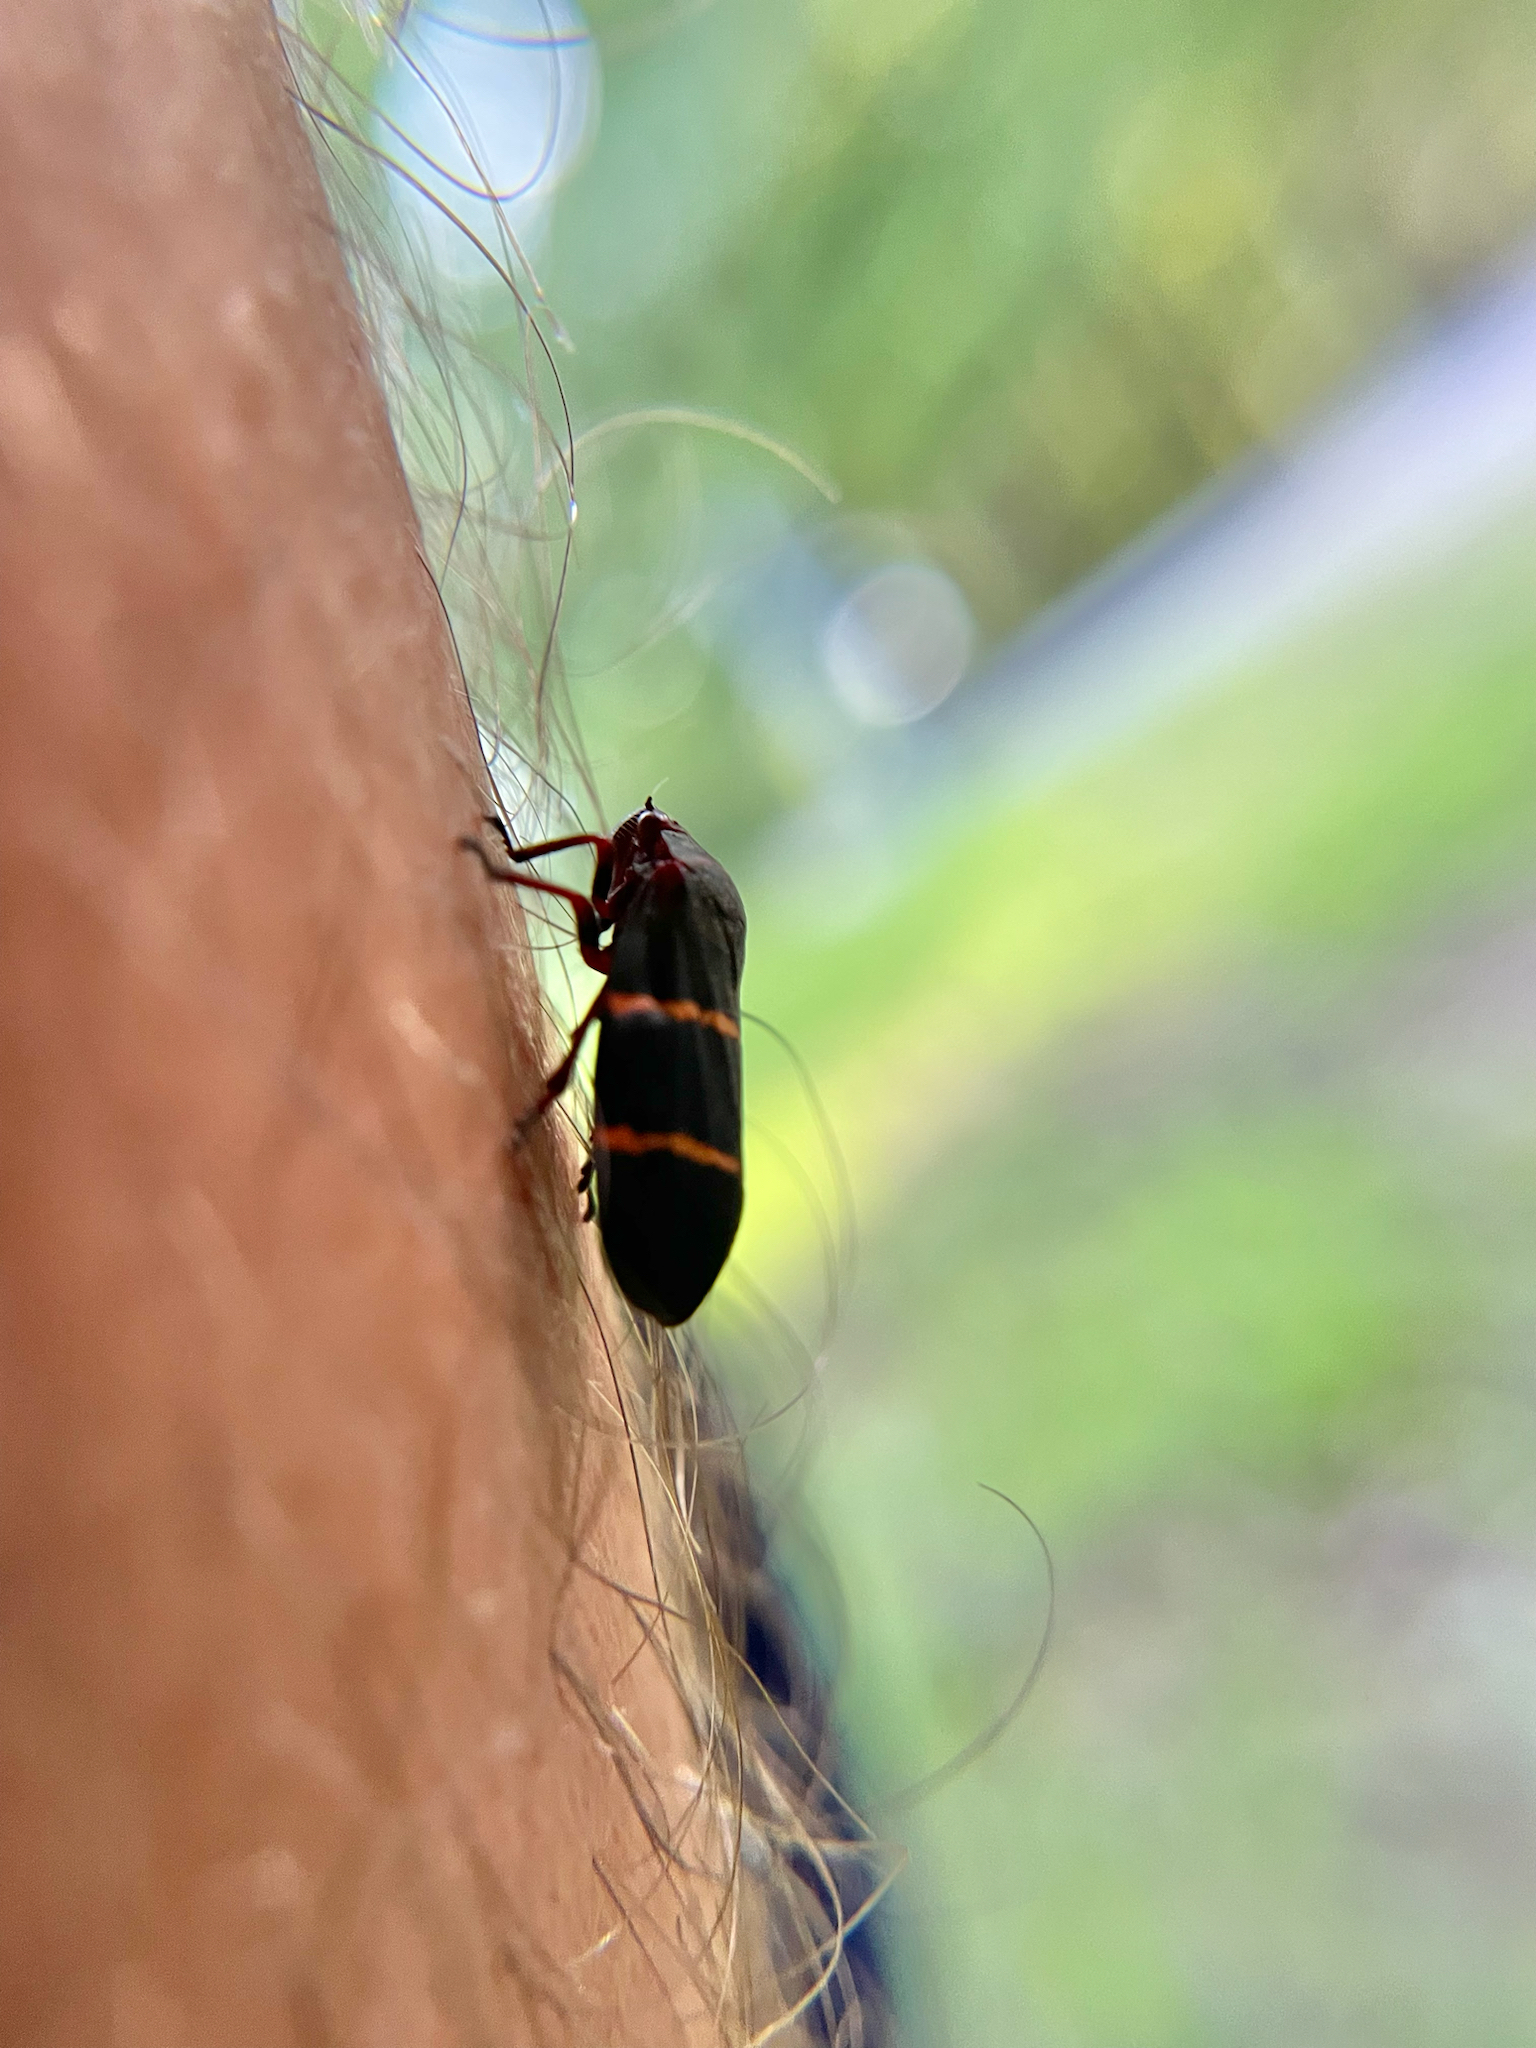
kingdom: Animalia
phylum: Arthropoda
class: Insecta
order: Hemiptera
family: Cercopidae
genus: Prosapia
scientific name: Prosapia bicincta
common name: Twolined spittlebug
